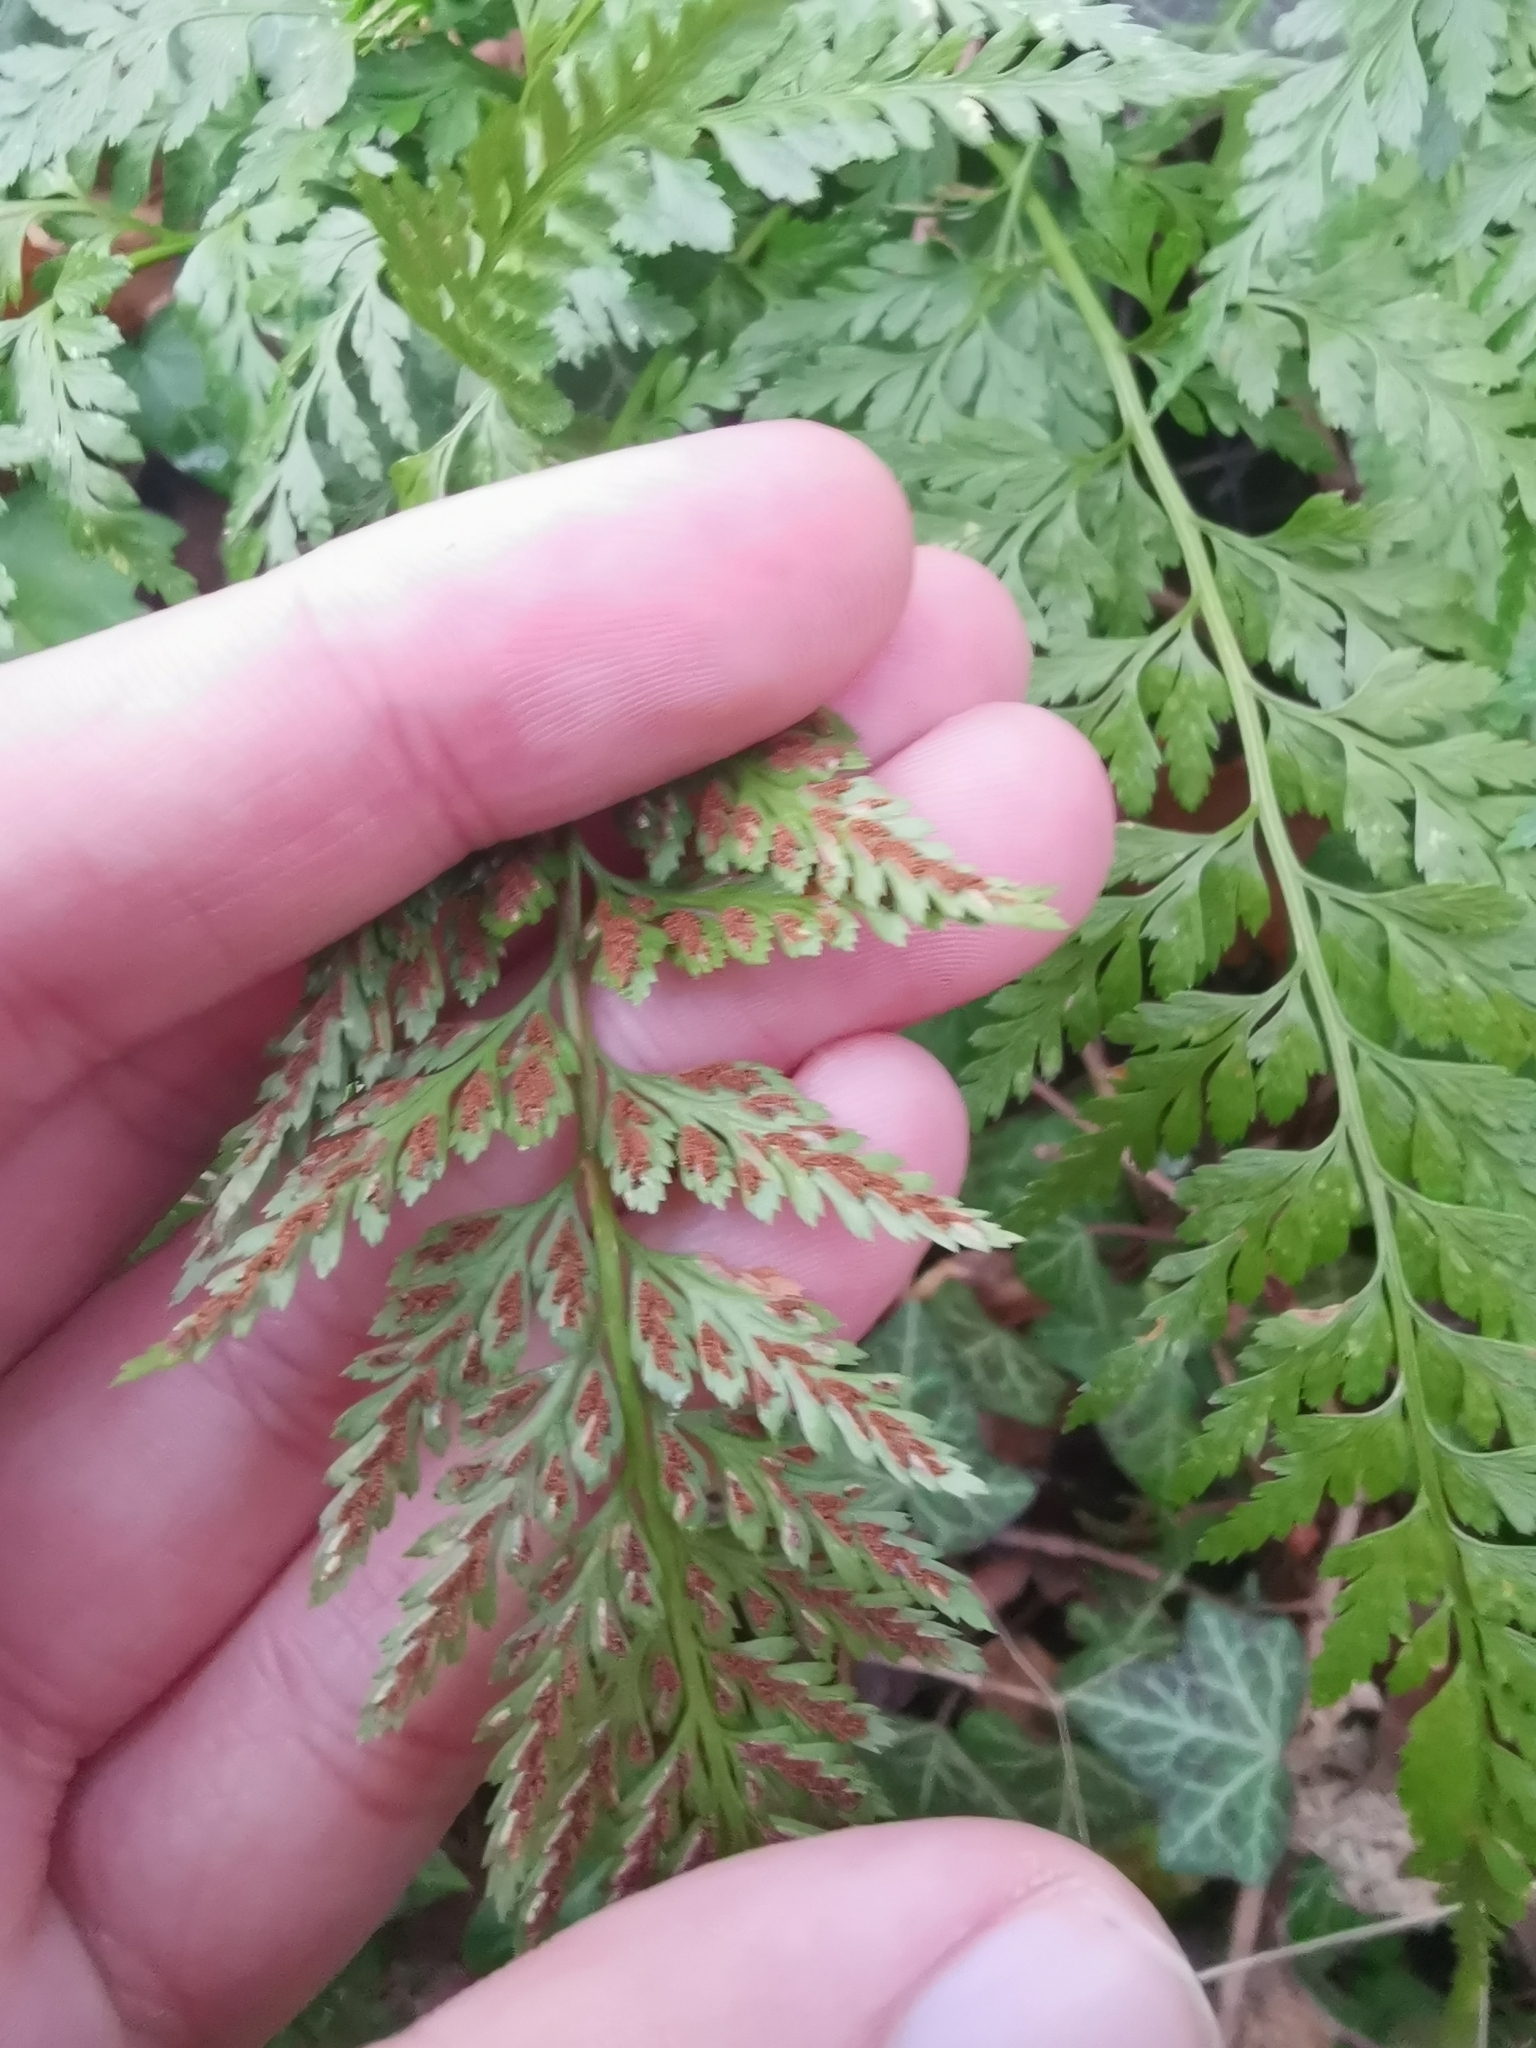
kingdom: Plantae
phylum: Tracheophyta
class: Polypodiopsida
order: Polypodiales
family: Aspleniaceae
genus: Asplenium
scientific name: Asplenium onopteris
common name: Irish spleenwort
